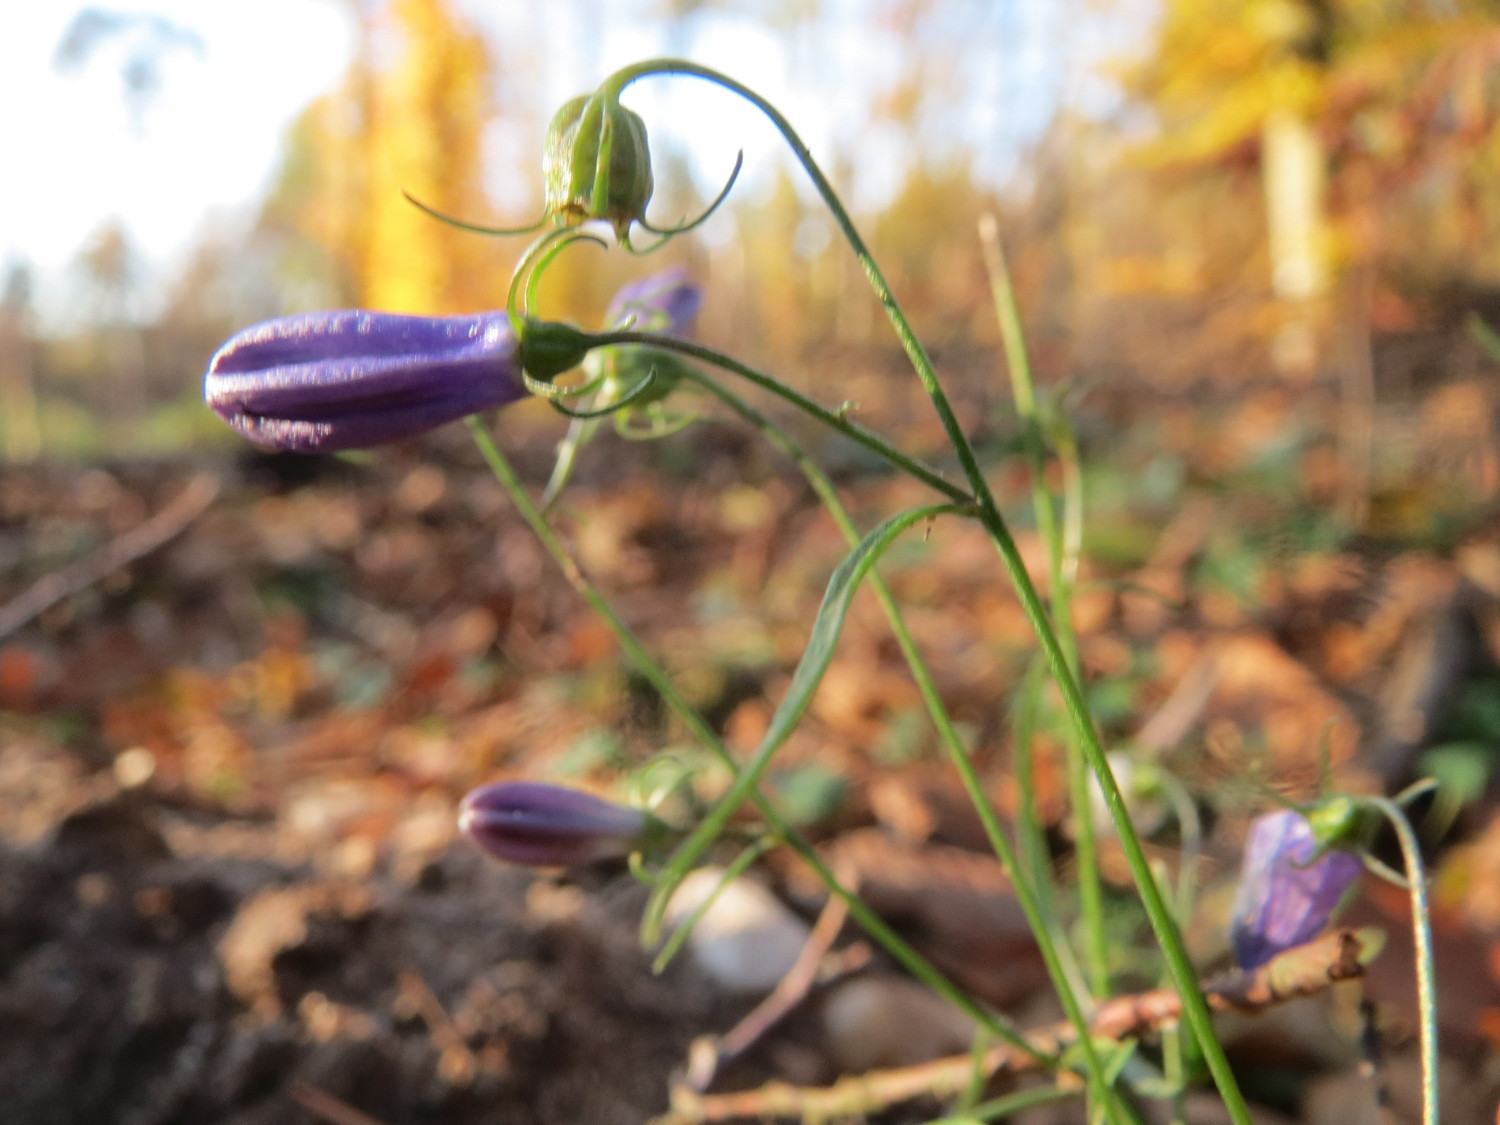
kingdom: Plantae
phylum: Tracheophyta
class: Magnoliopsida
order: Asterales
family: Campanulaceae
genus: Campanula
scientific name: Campanula rotundifolia
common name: Harebell
